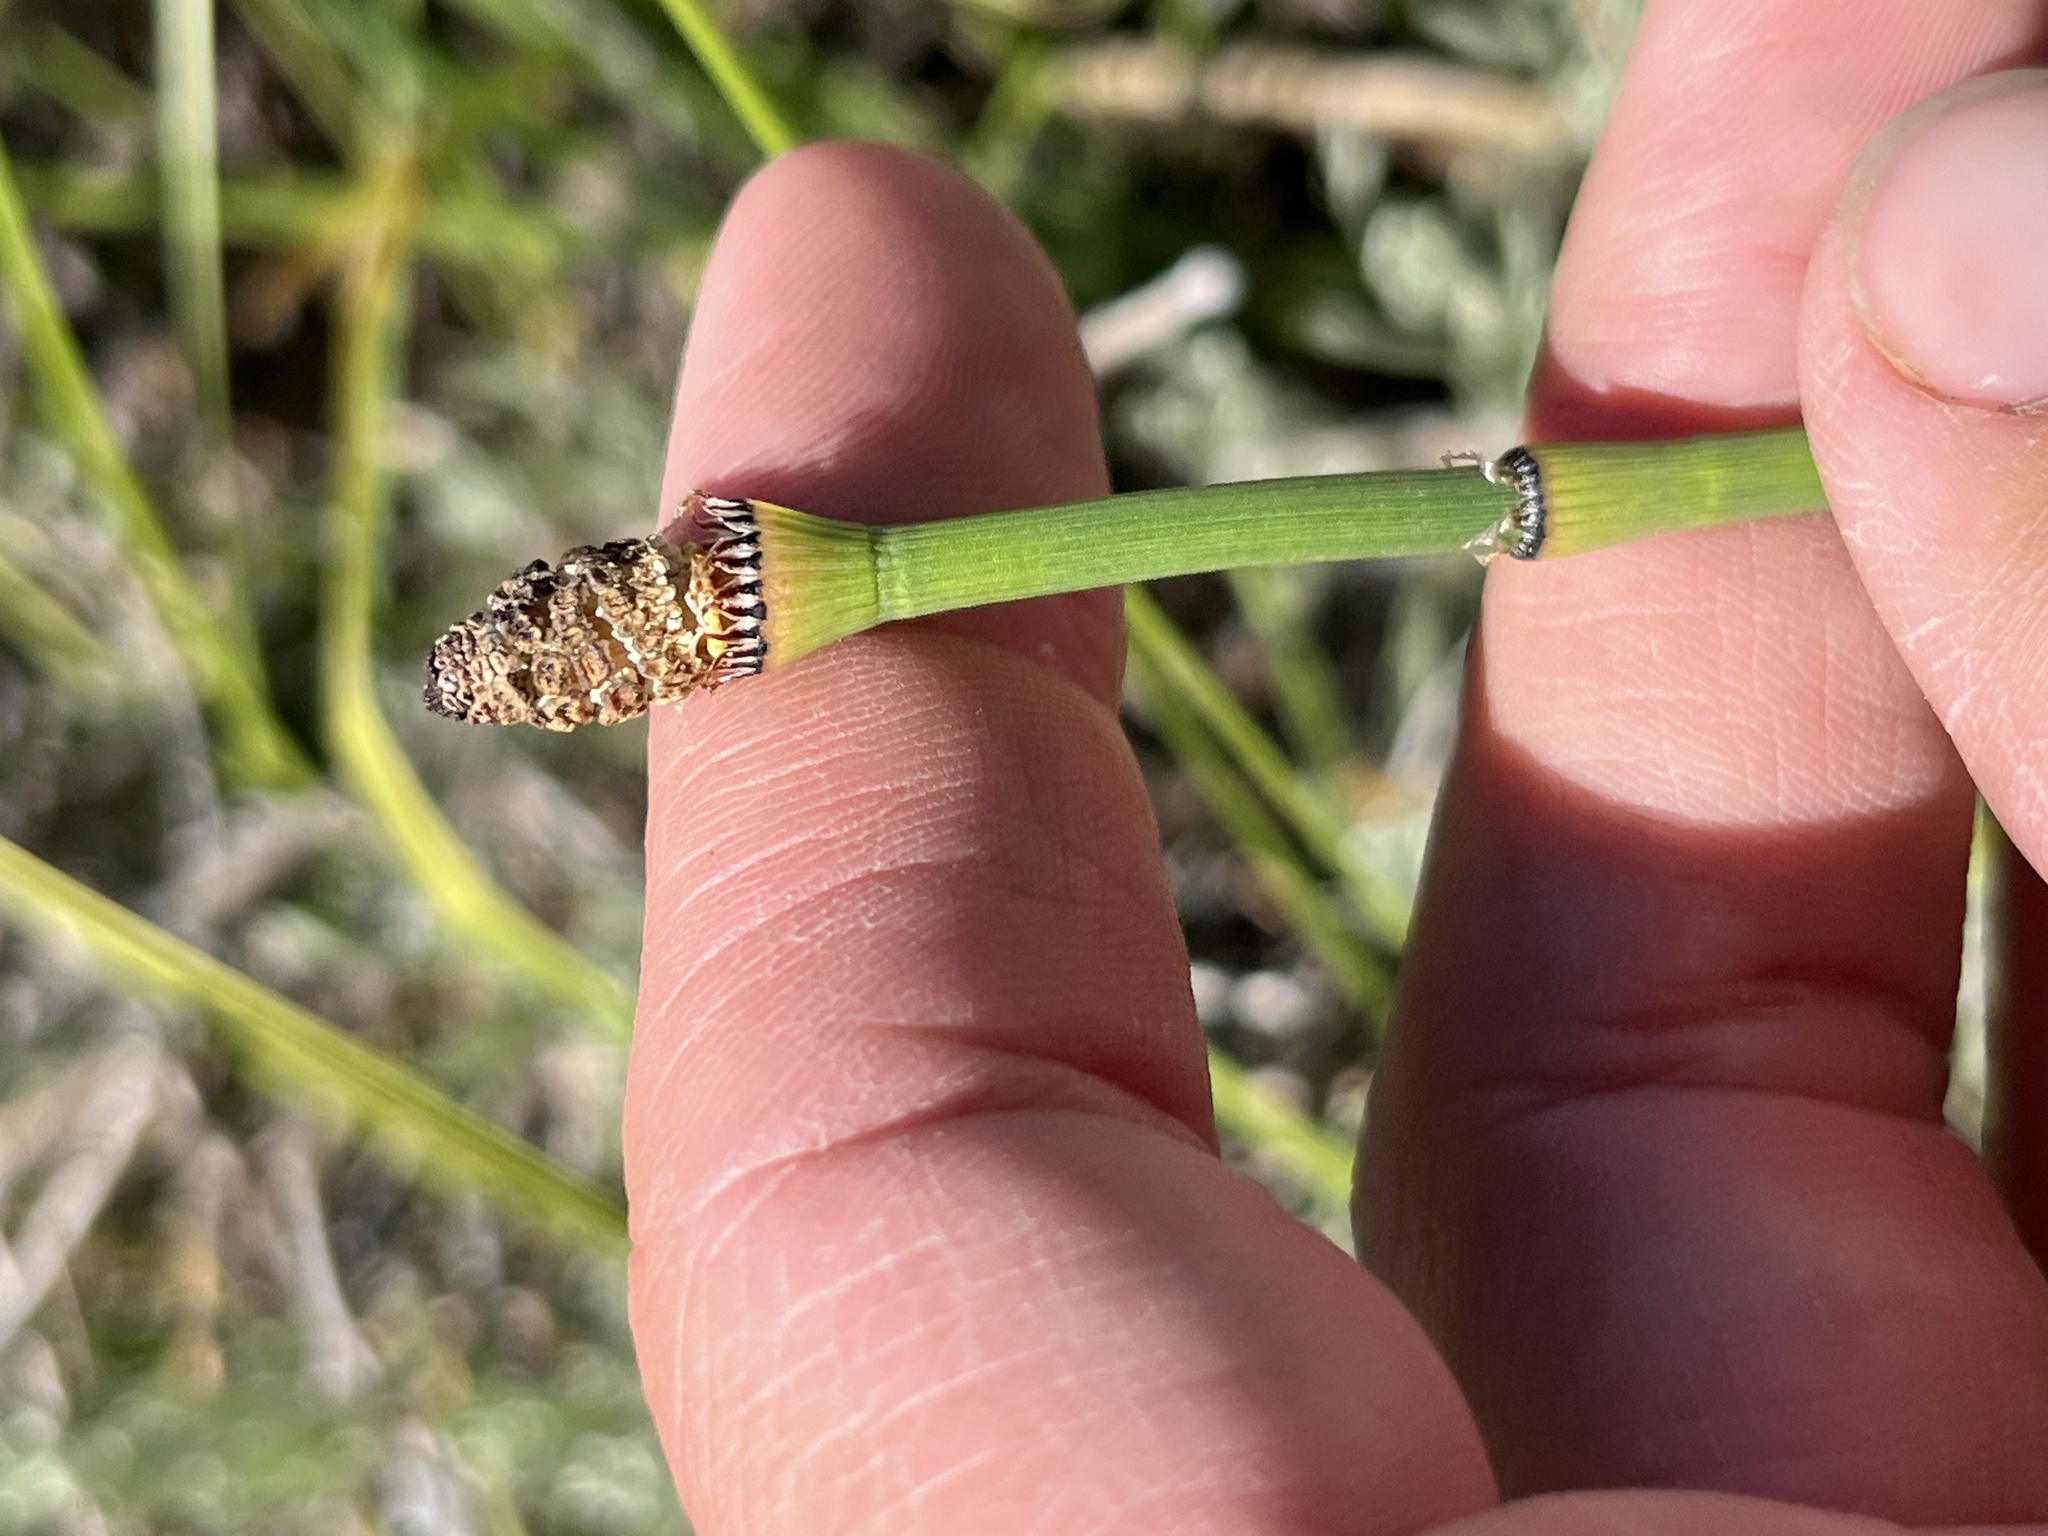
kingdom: Plantae
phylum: Tracheophyta
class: Polypodiopsida
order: Equisetales
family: Equisetaceae
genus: Equisetum
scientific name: Equisetum laevigatum
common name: Smooth scouring-rush
